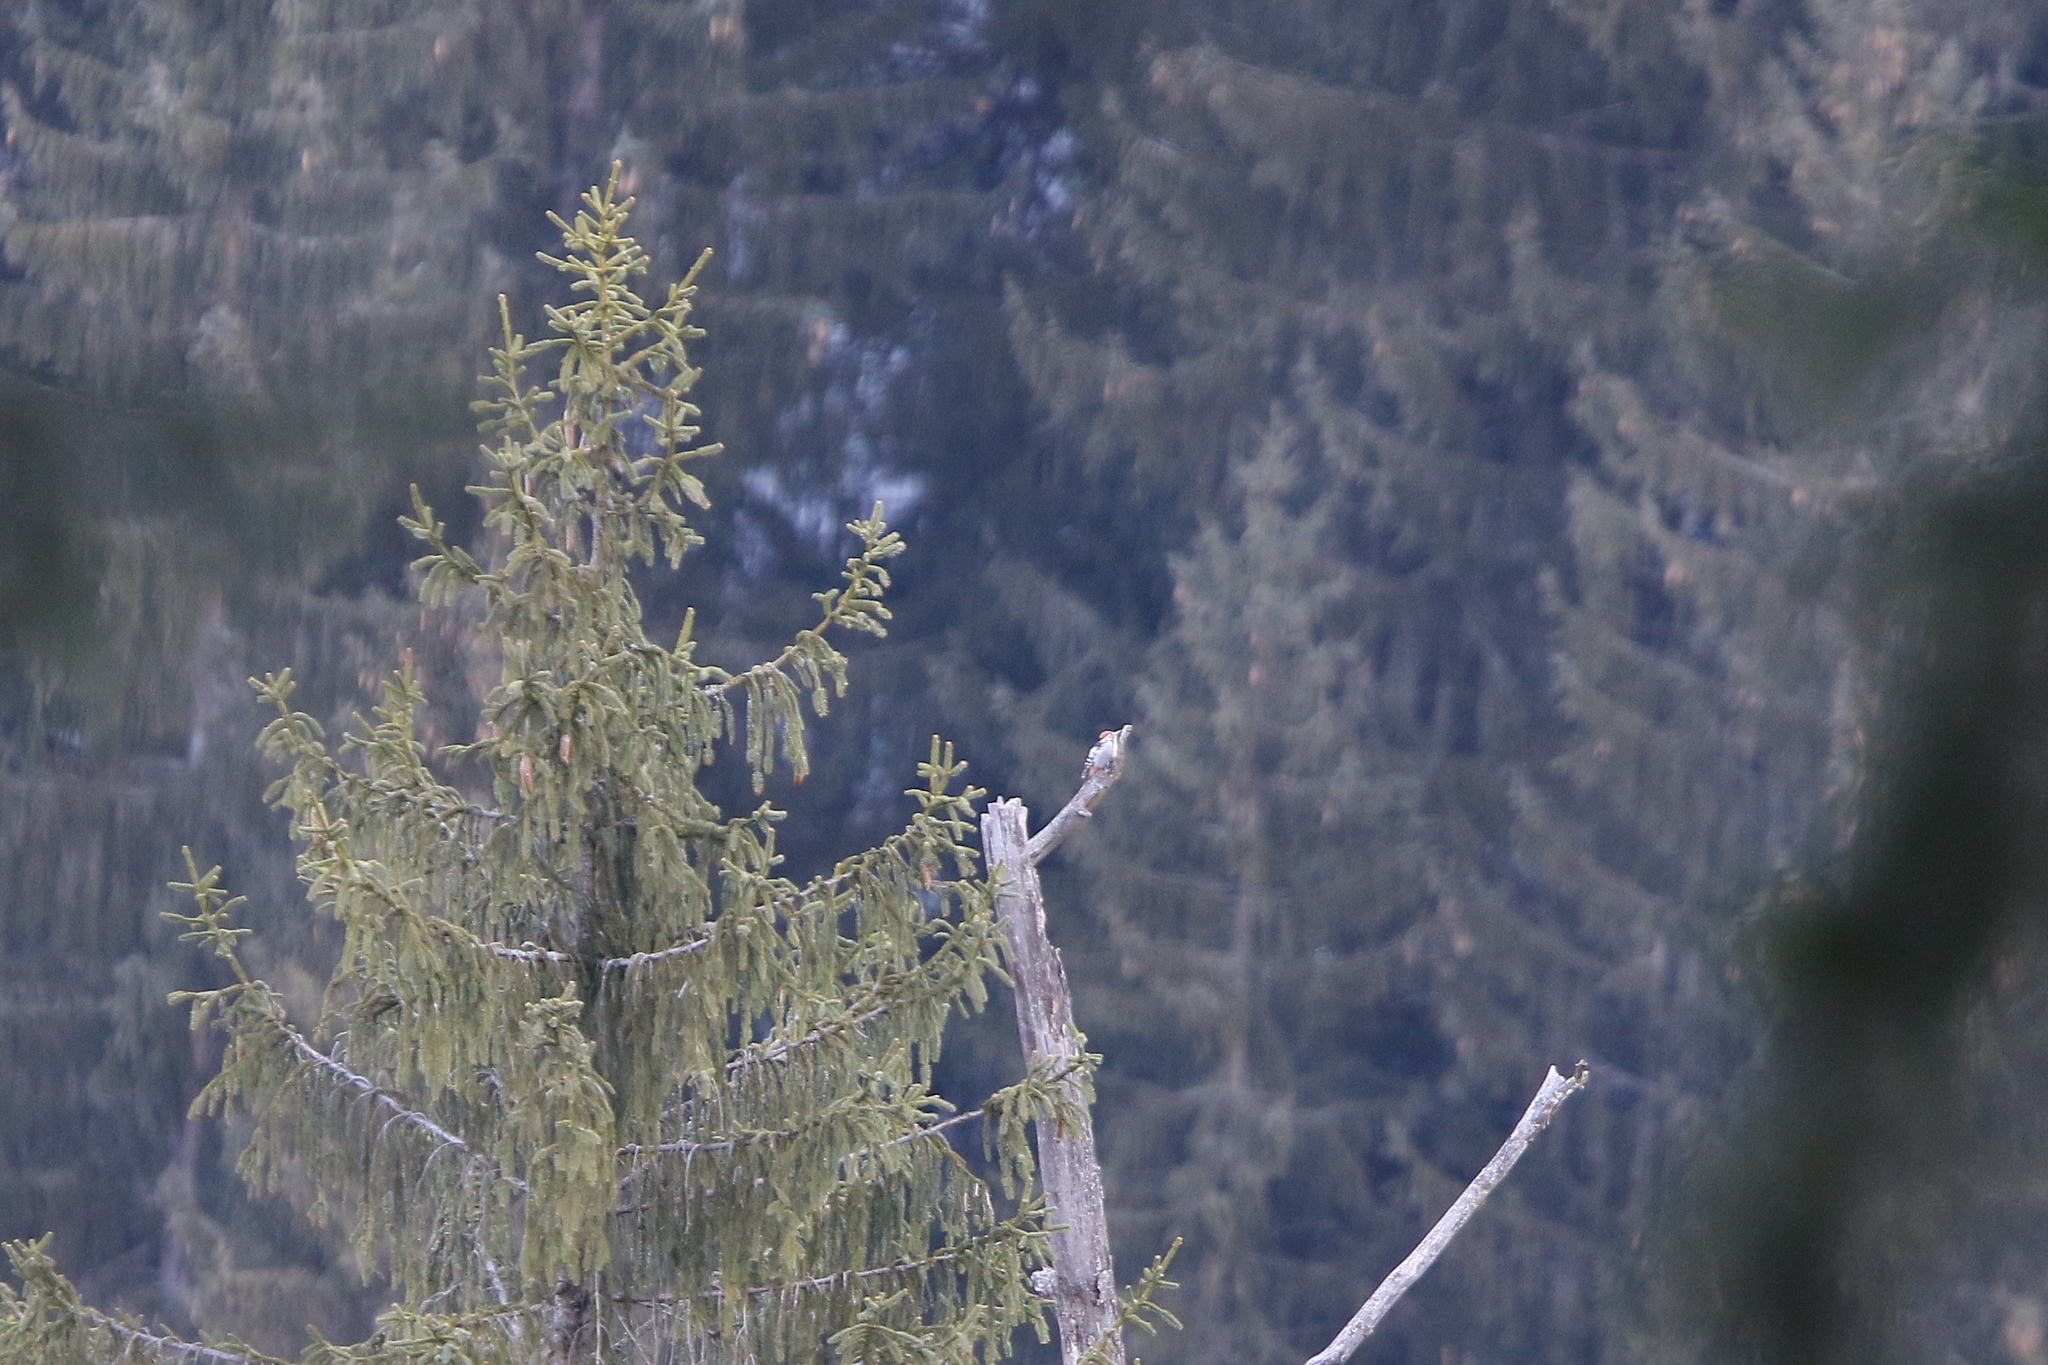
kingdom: Animalia
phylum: Chordata
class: Aves
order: Piciformes
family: Picidae
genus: Dendrocopos
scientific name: Dendrocopos leucotos
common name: White-backed woodpecker
